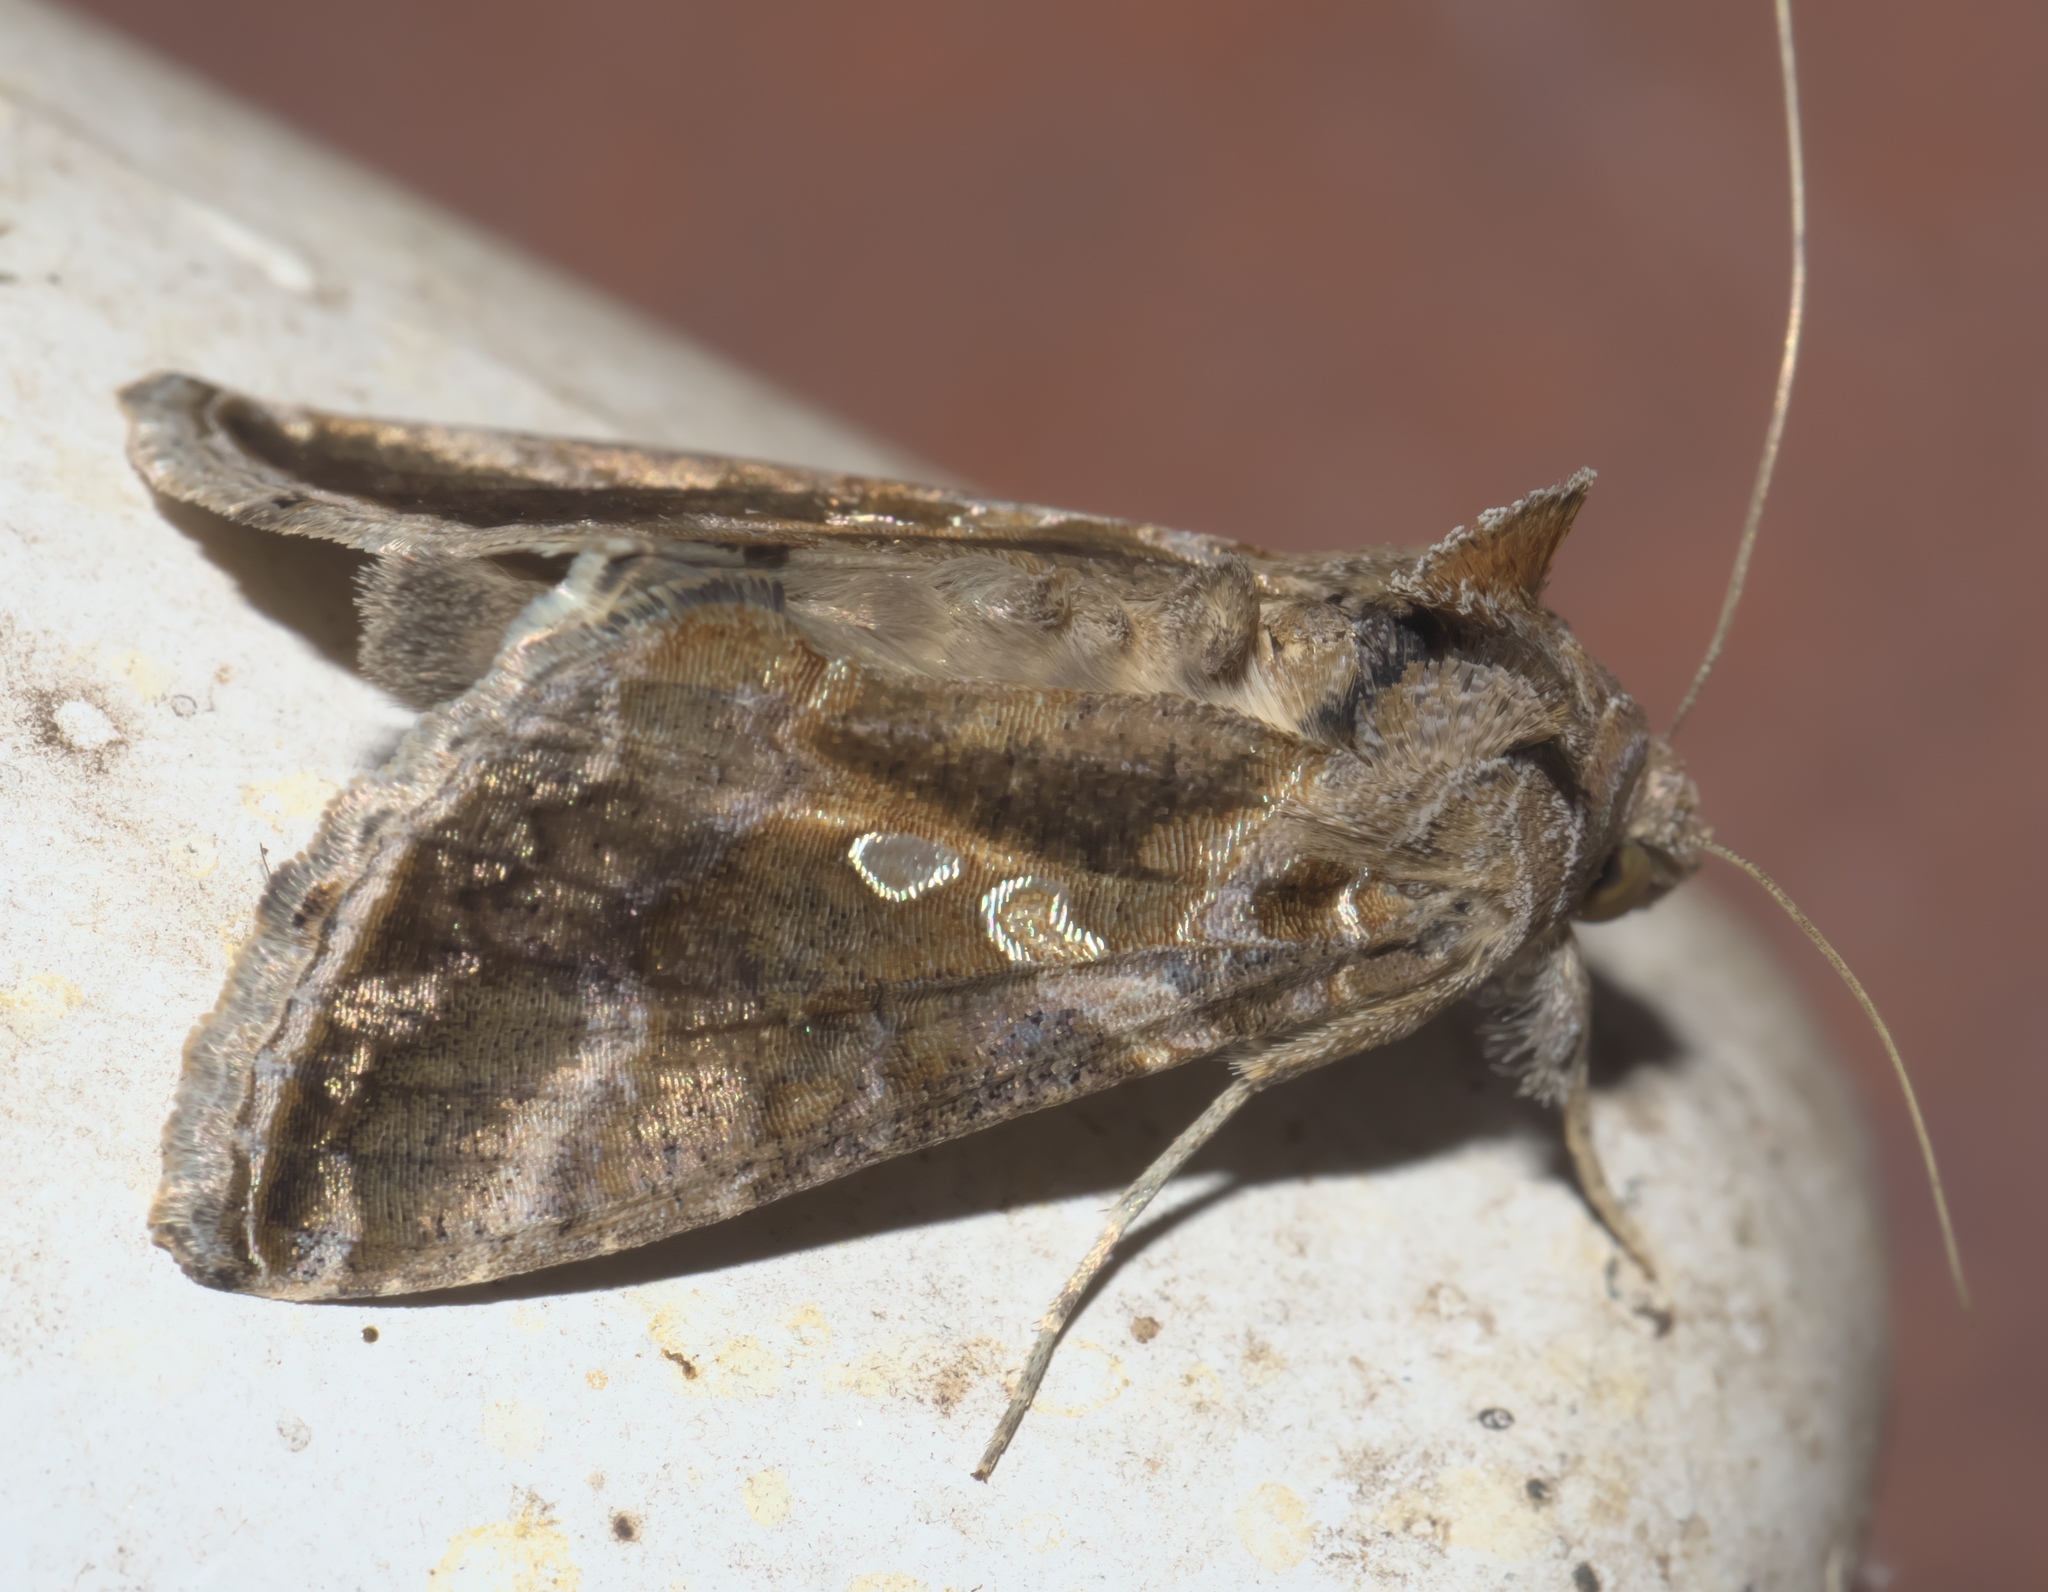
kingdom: Animalia
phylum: Arthropoda
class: Insecta
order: Lepidoptera
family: Noctuidae
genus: Chrysodeixis
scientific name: Chrysodeixis includens
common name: Cutworm moth
